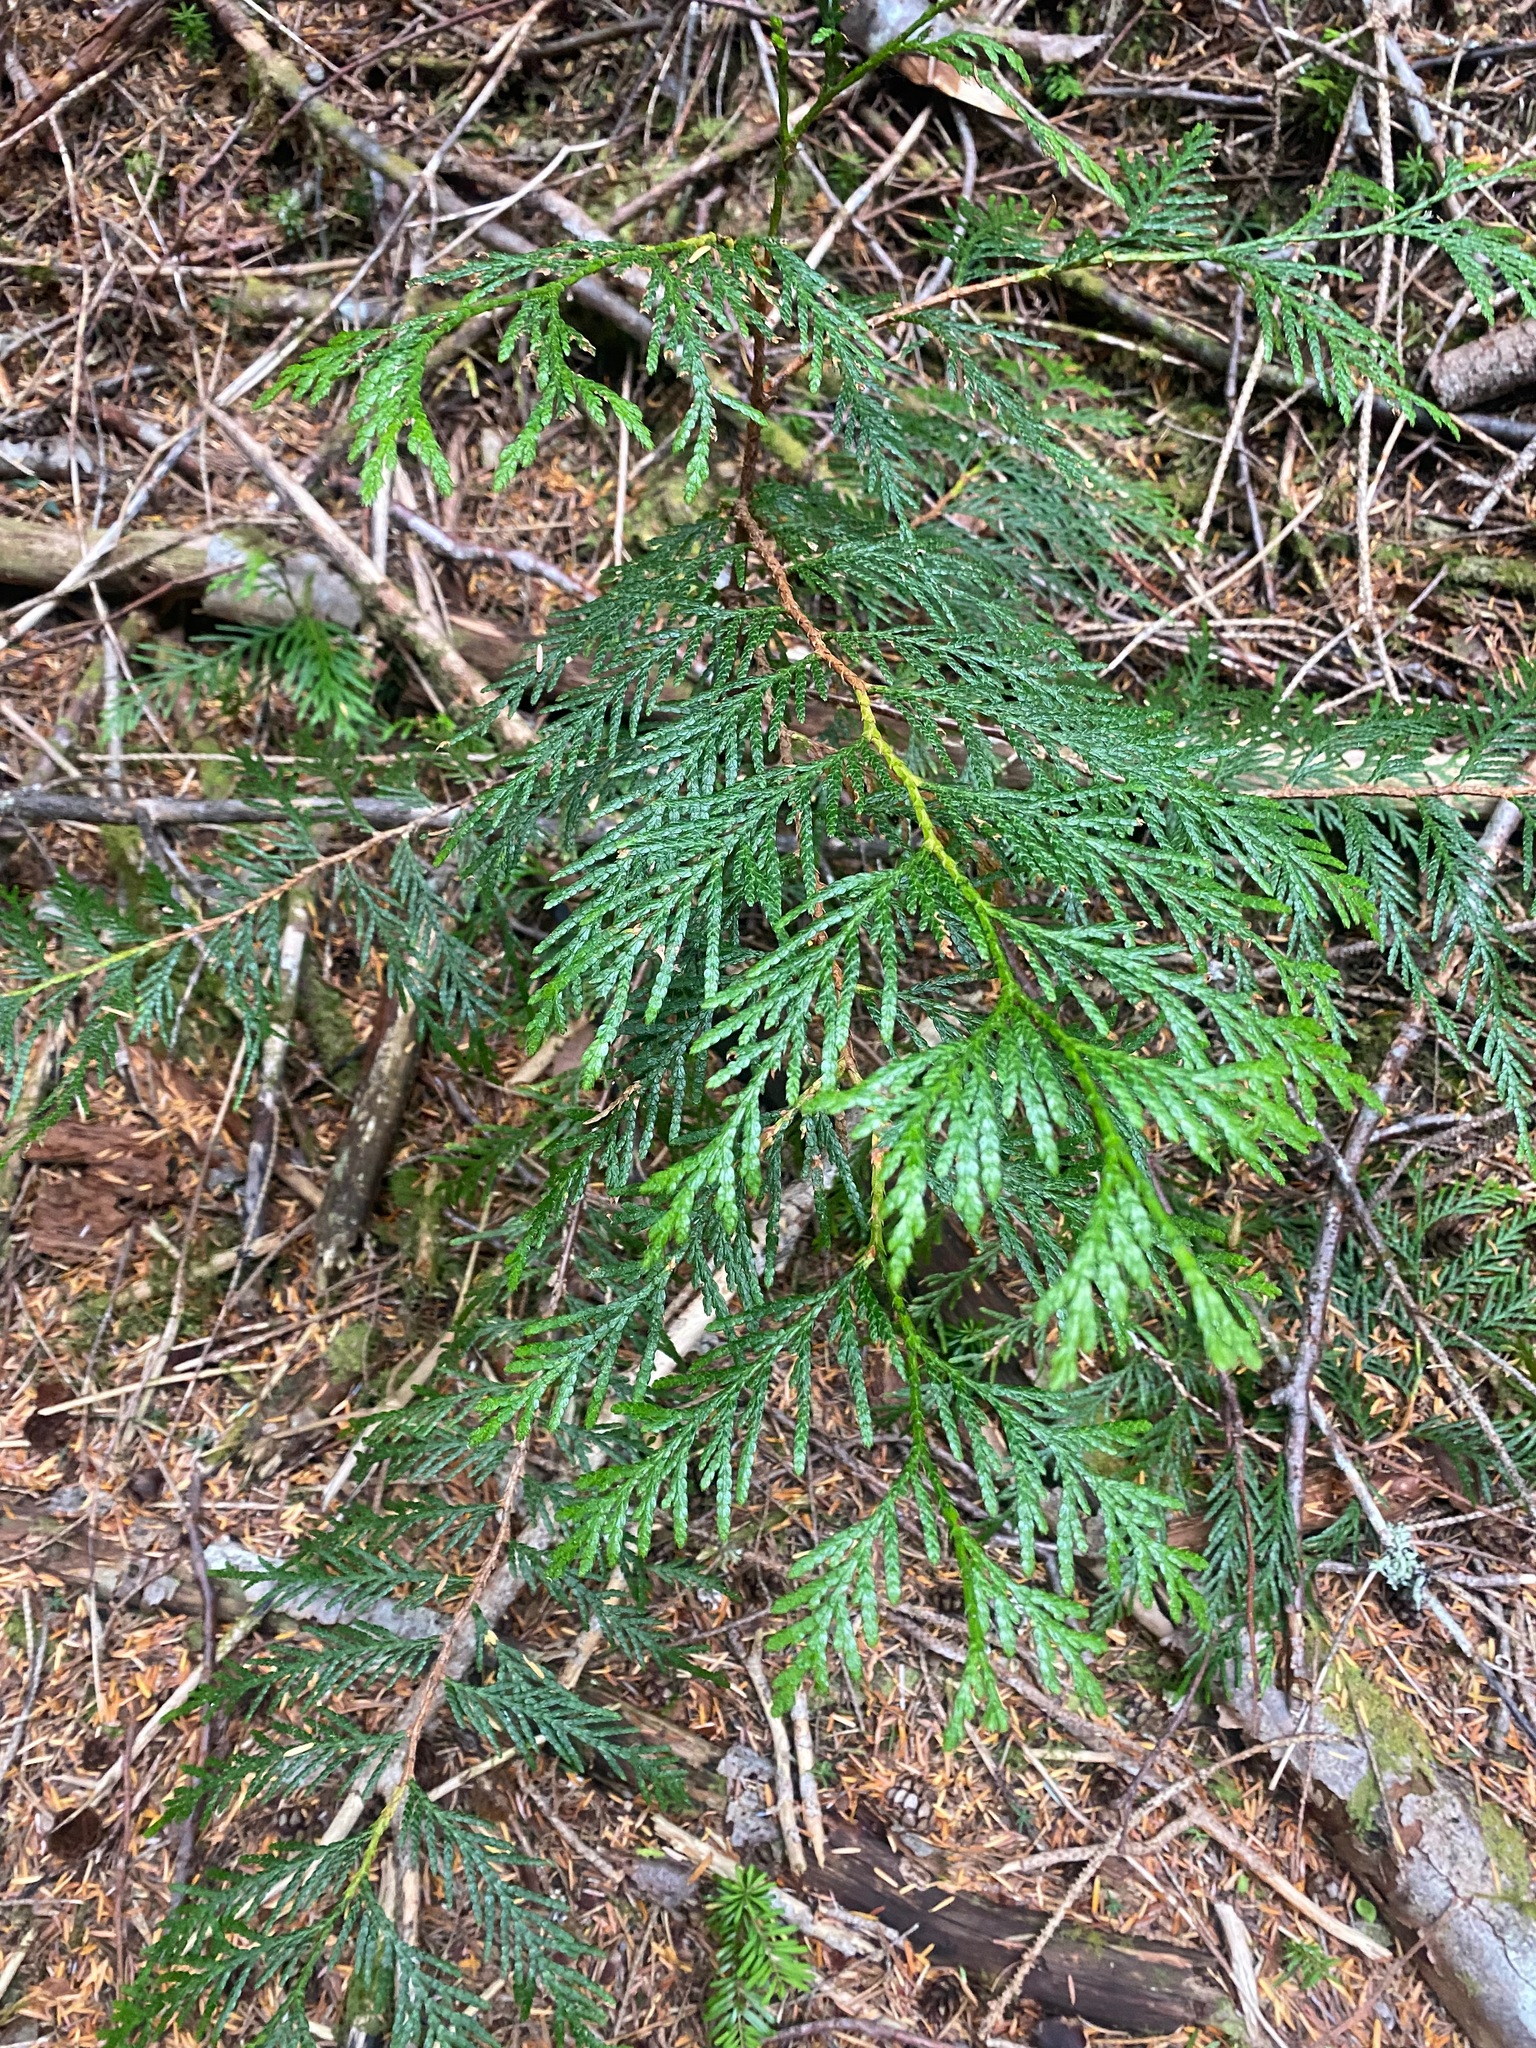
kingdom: Plantae
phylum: Tracheophyta
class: Pinopsida
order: Pinales
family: Cupressaceae
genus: Thuja
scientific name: Thuja plicata
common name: Western red-cedar
